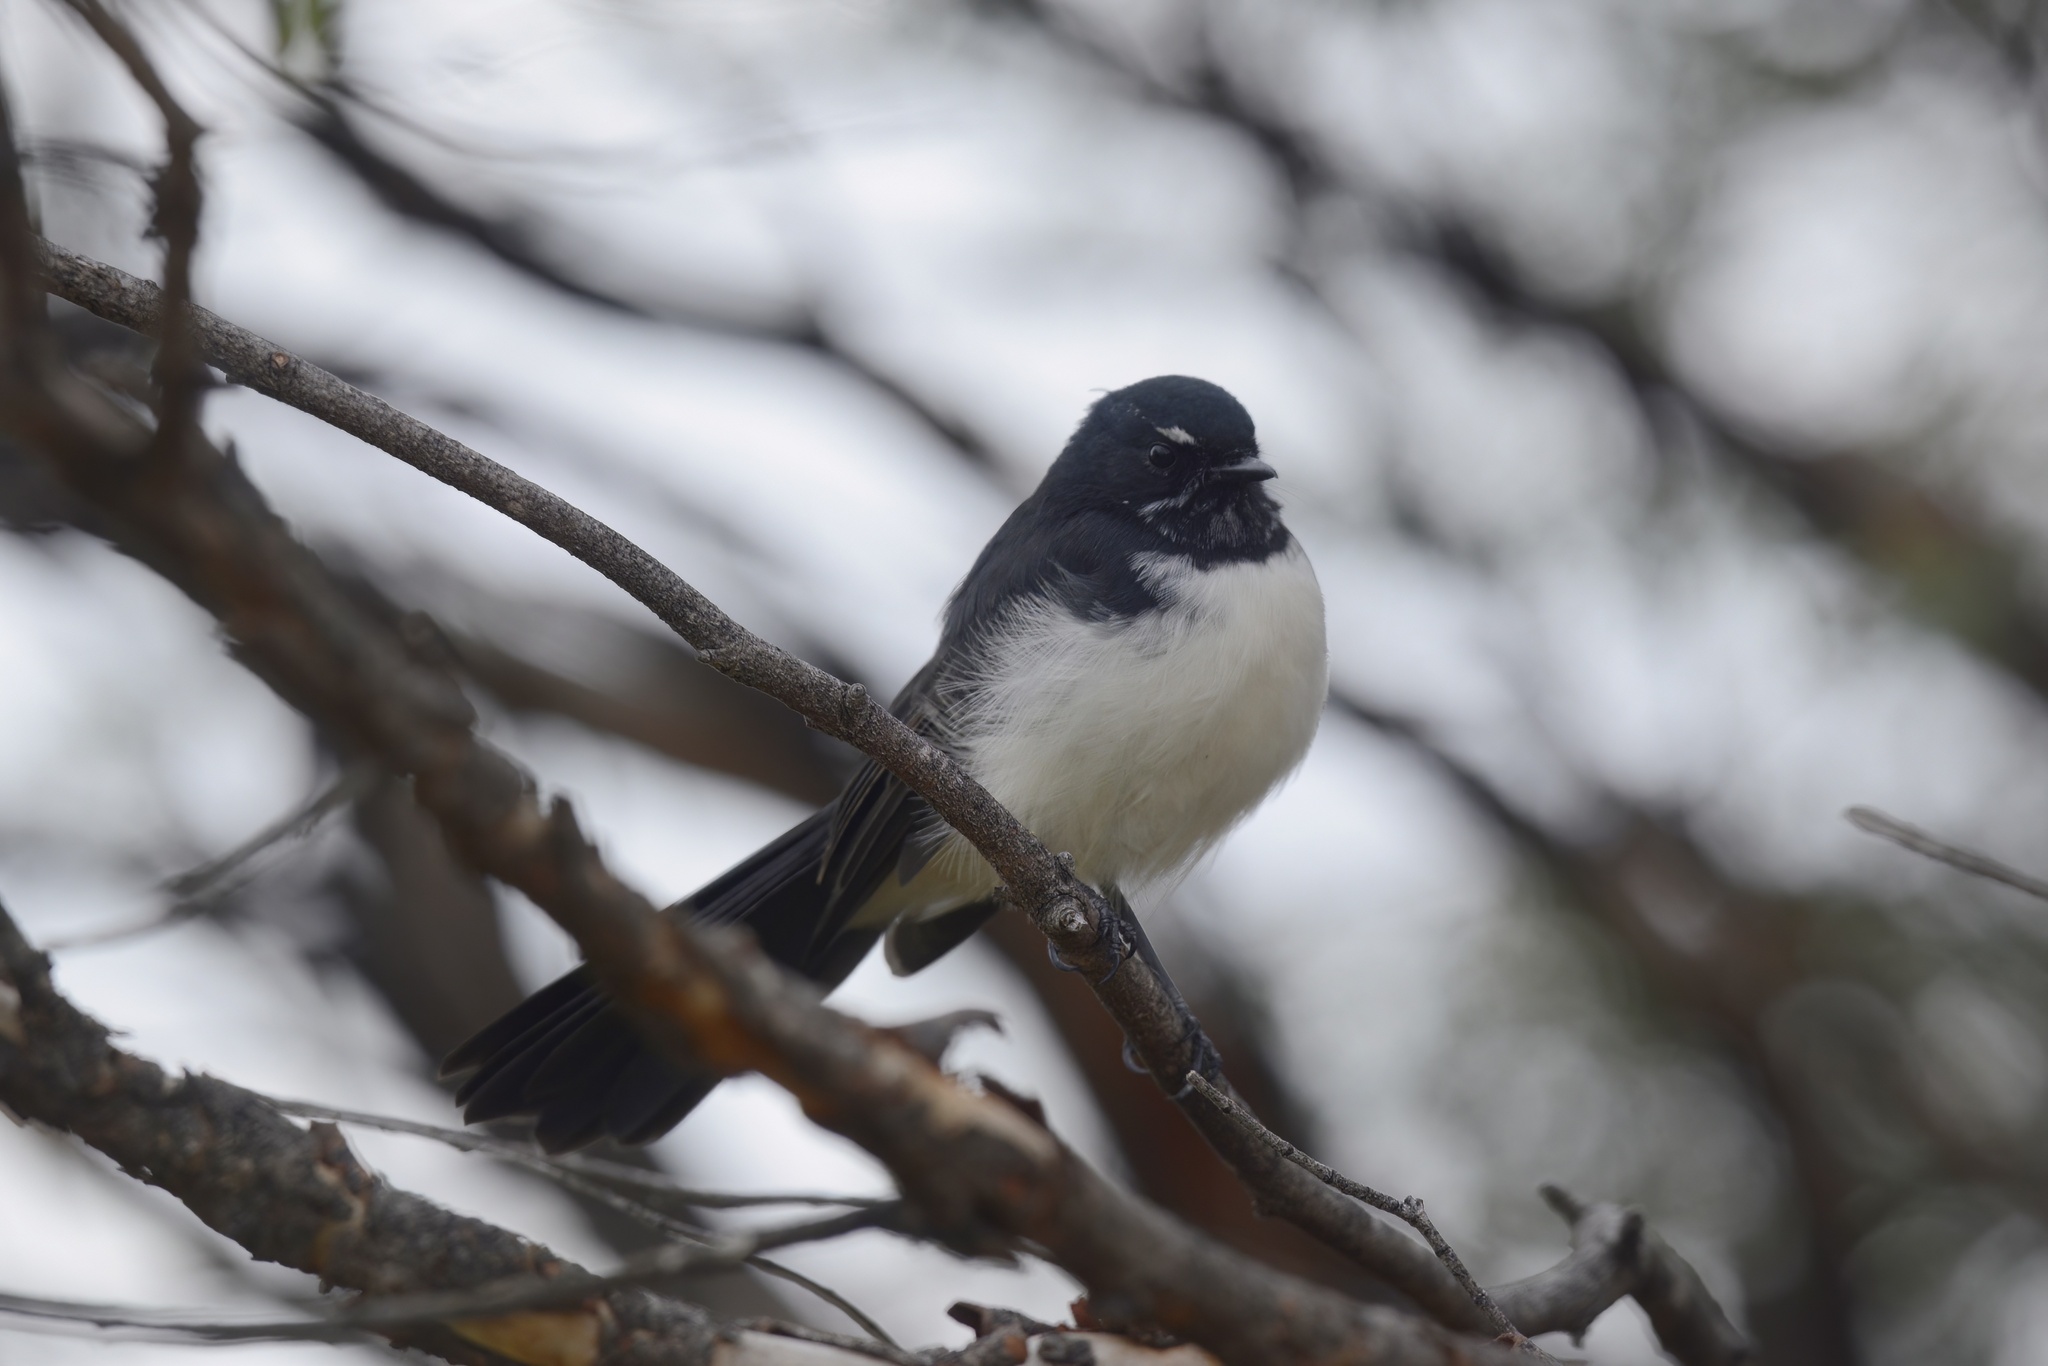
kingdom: Animalia
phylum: Chordata
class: Aves
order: Passeriformes
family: Rhipiduridae
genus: Rhipidura
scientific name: Rhipidura leucophrys
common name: Willie wagtail
